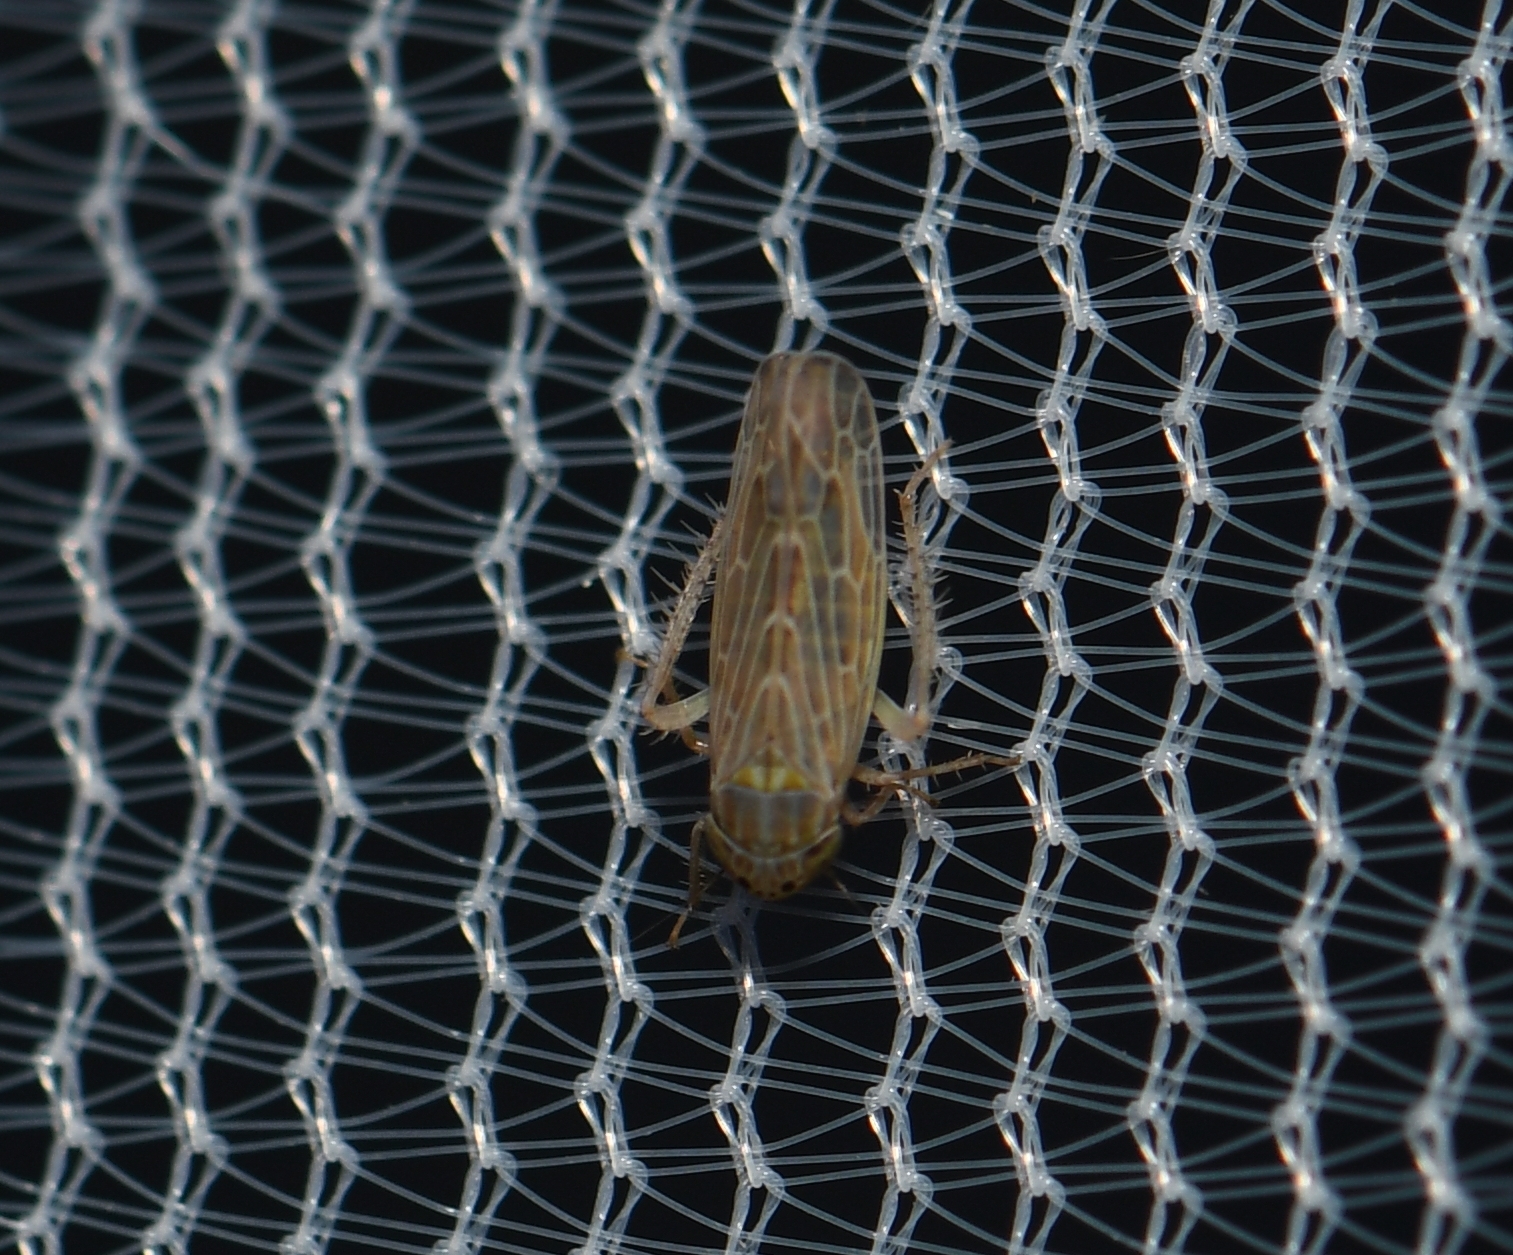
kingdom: Animalia
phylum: Arthropoda
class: Insecta
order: Hemiptera
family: Cicadellidae
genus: Graminella
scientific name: Graminella sonora
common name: Lesser lawn leafhopper
